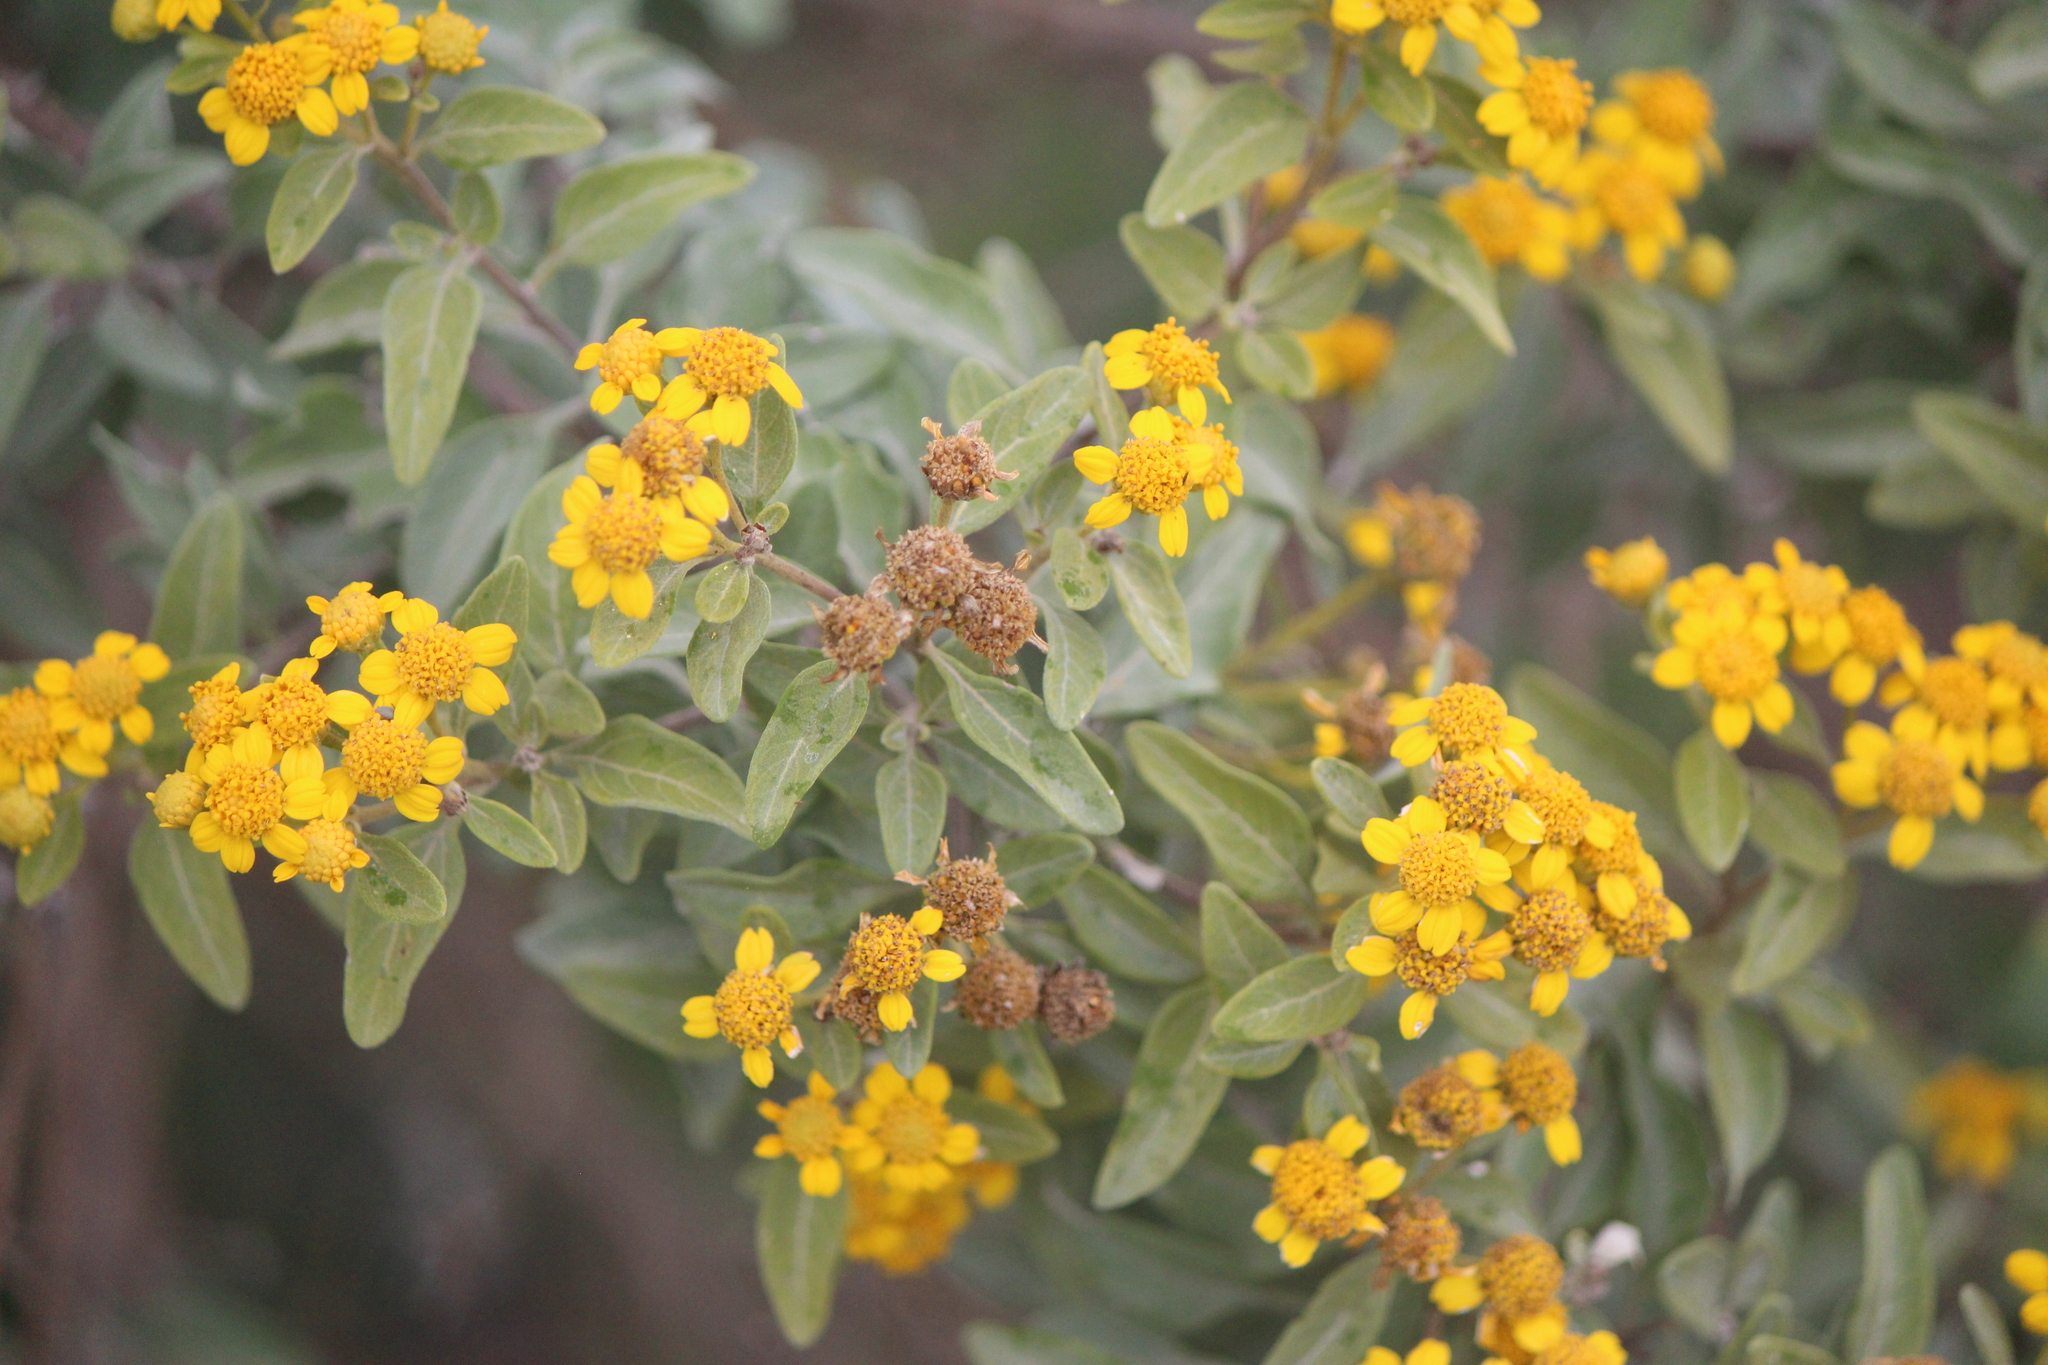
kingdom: Plantae
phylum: Tracheophyta
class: Magnoliopsida
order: Asterales
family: Asteraceae
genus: Zaluzania
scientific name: Zaluzania augusta
